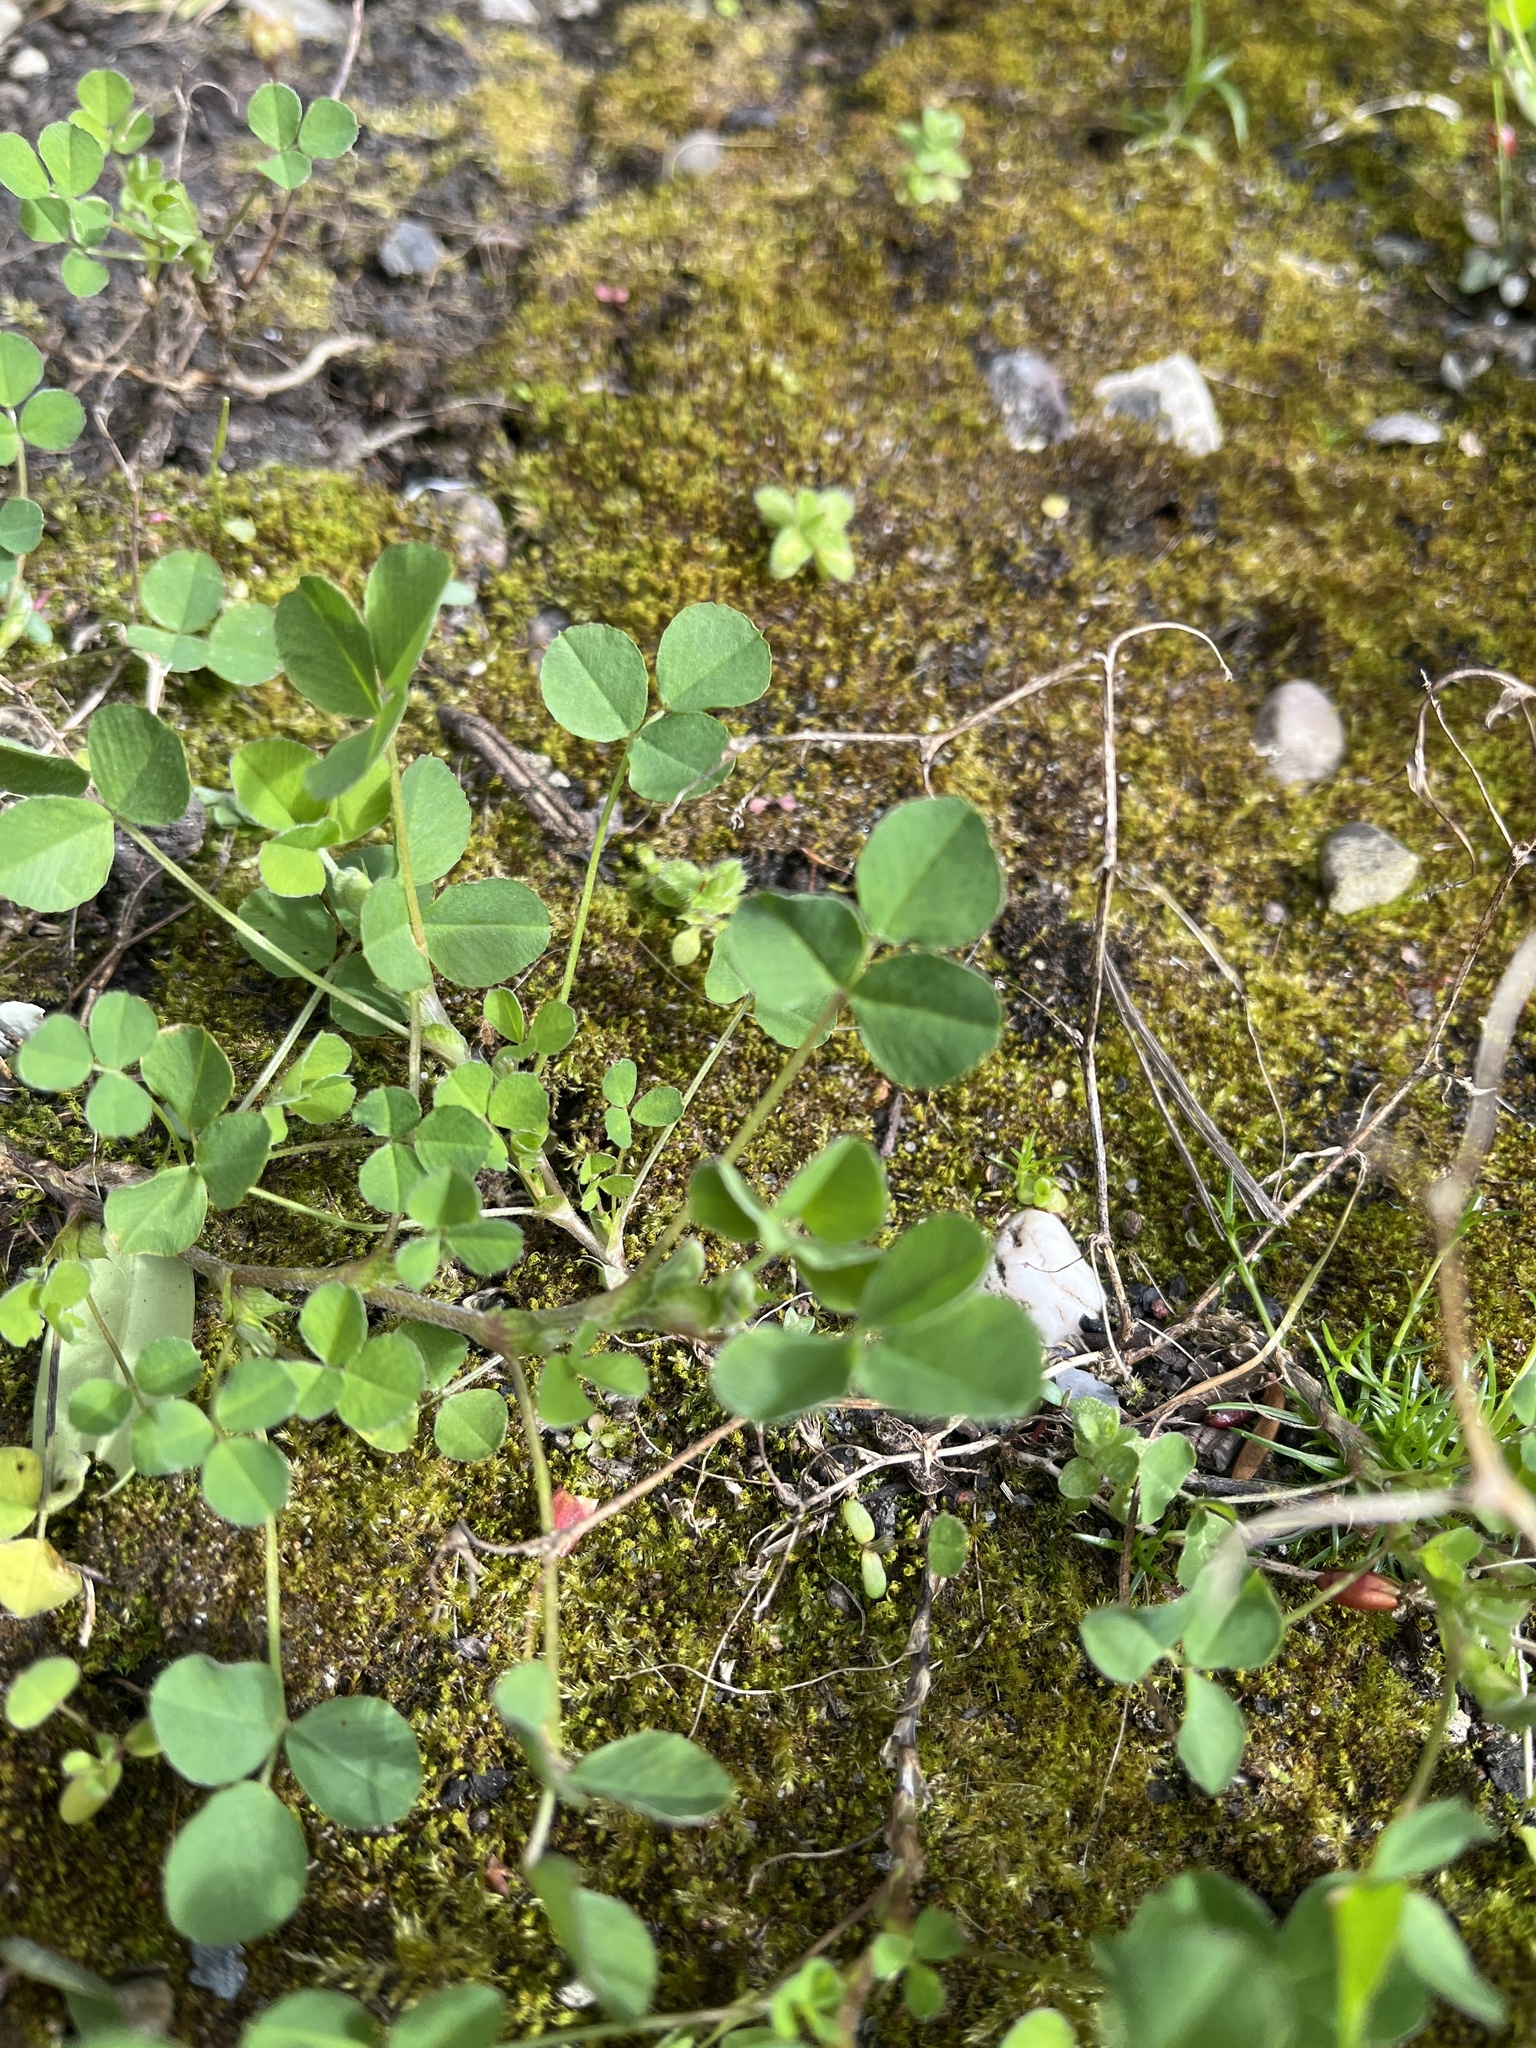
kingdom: Plantae
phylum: Tracheophyta
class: Magnoliopsida
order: Fabales
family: Fabaceae
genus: Medicago
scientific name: Medicago lupulina
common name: Black medick
